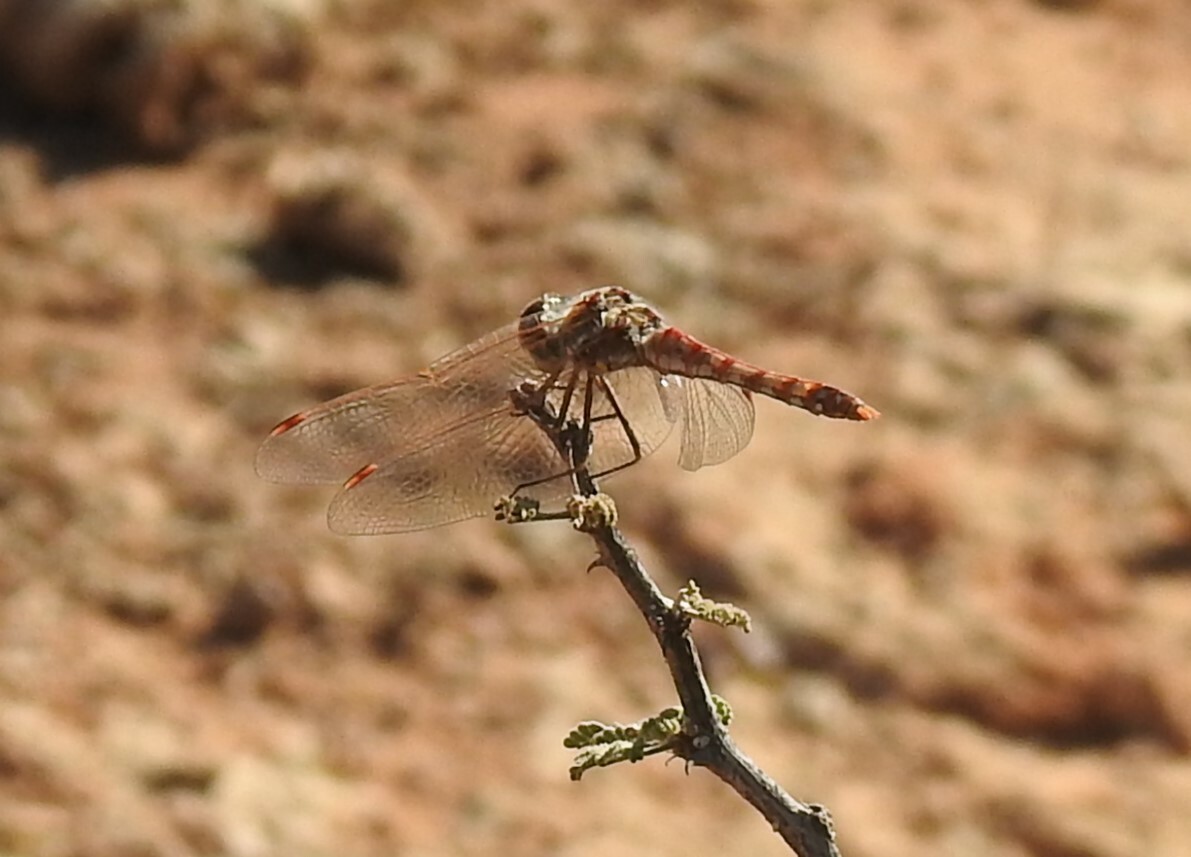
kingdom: Animalia
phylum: Arthropoda
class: Insecta
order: Odonata
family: Libellulidae
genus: Sympetrum
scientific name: Sympetrum corruptum
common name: Variegated meadowhawk
